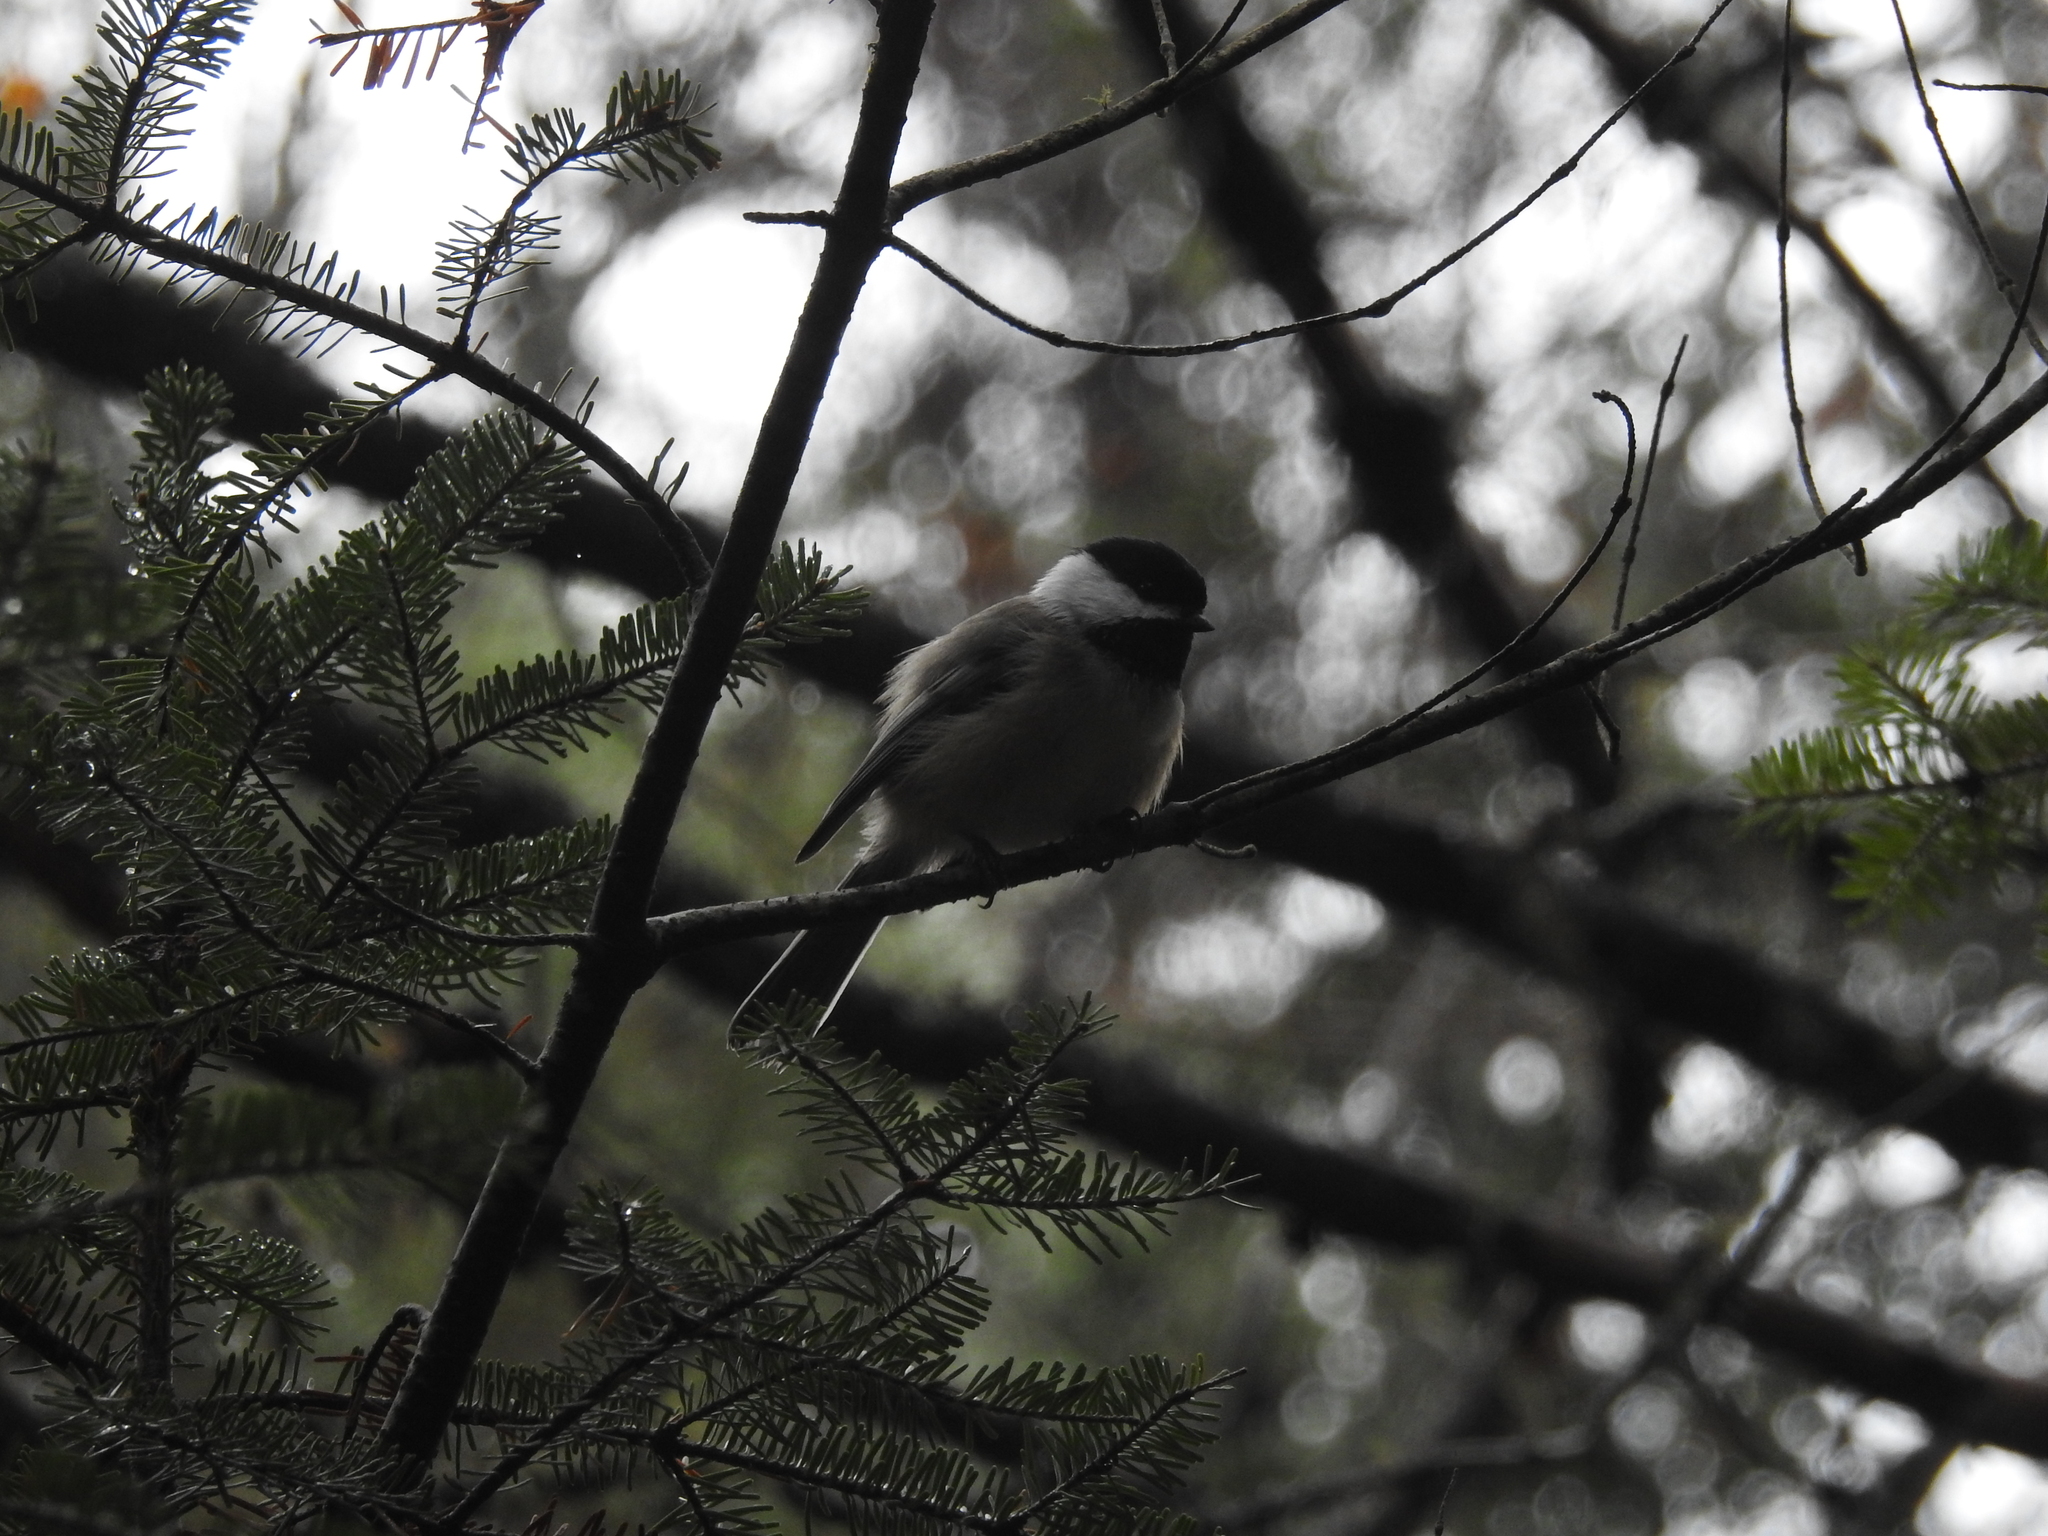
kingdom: Animalia
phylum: Chordata
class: Aves
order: Passeriformes
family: Paridae
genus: Poecile
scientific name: Poecile atricapillus
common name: Black-capped chickadee
